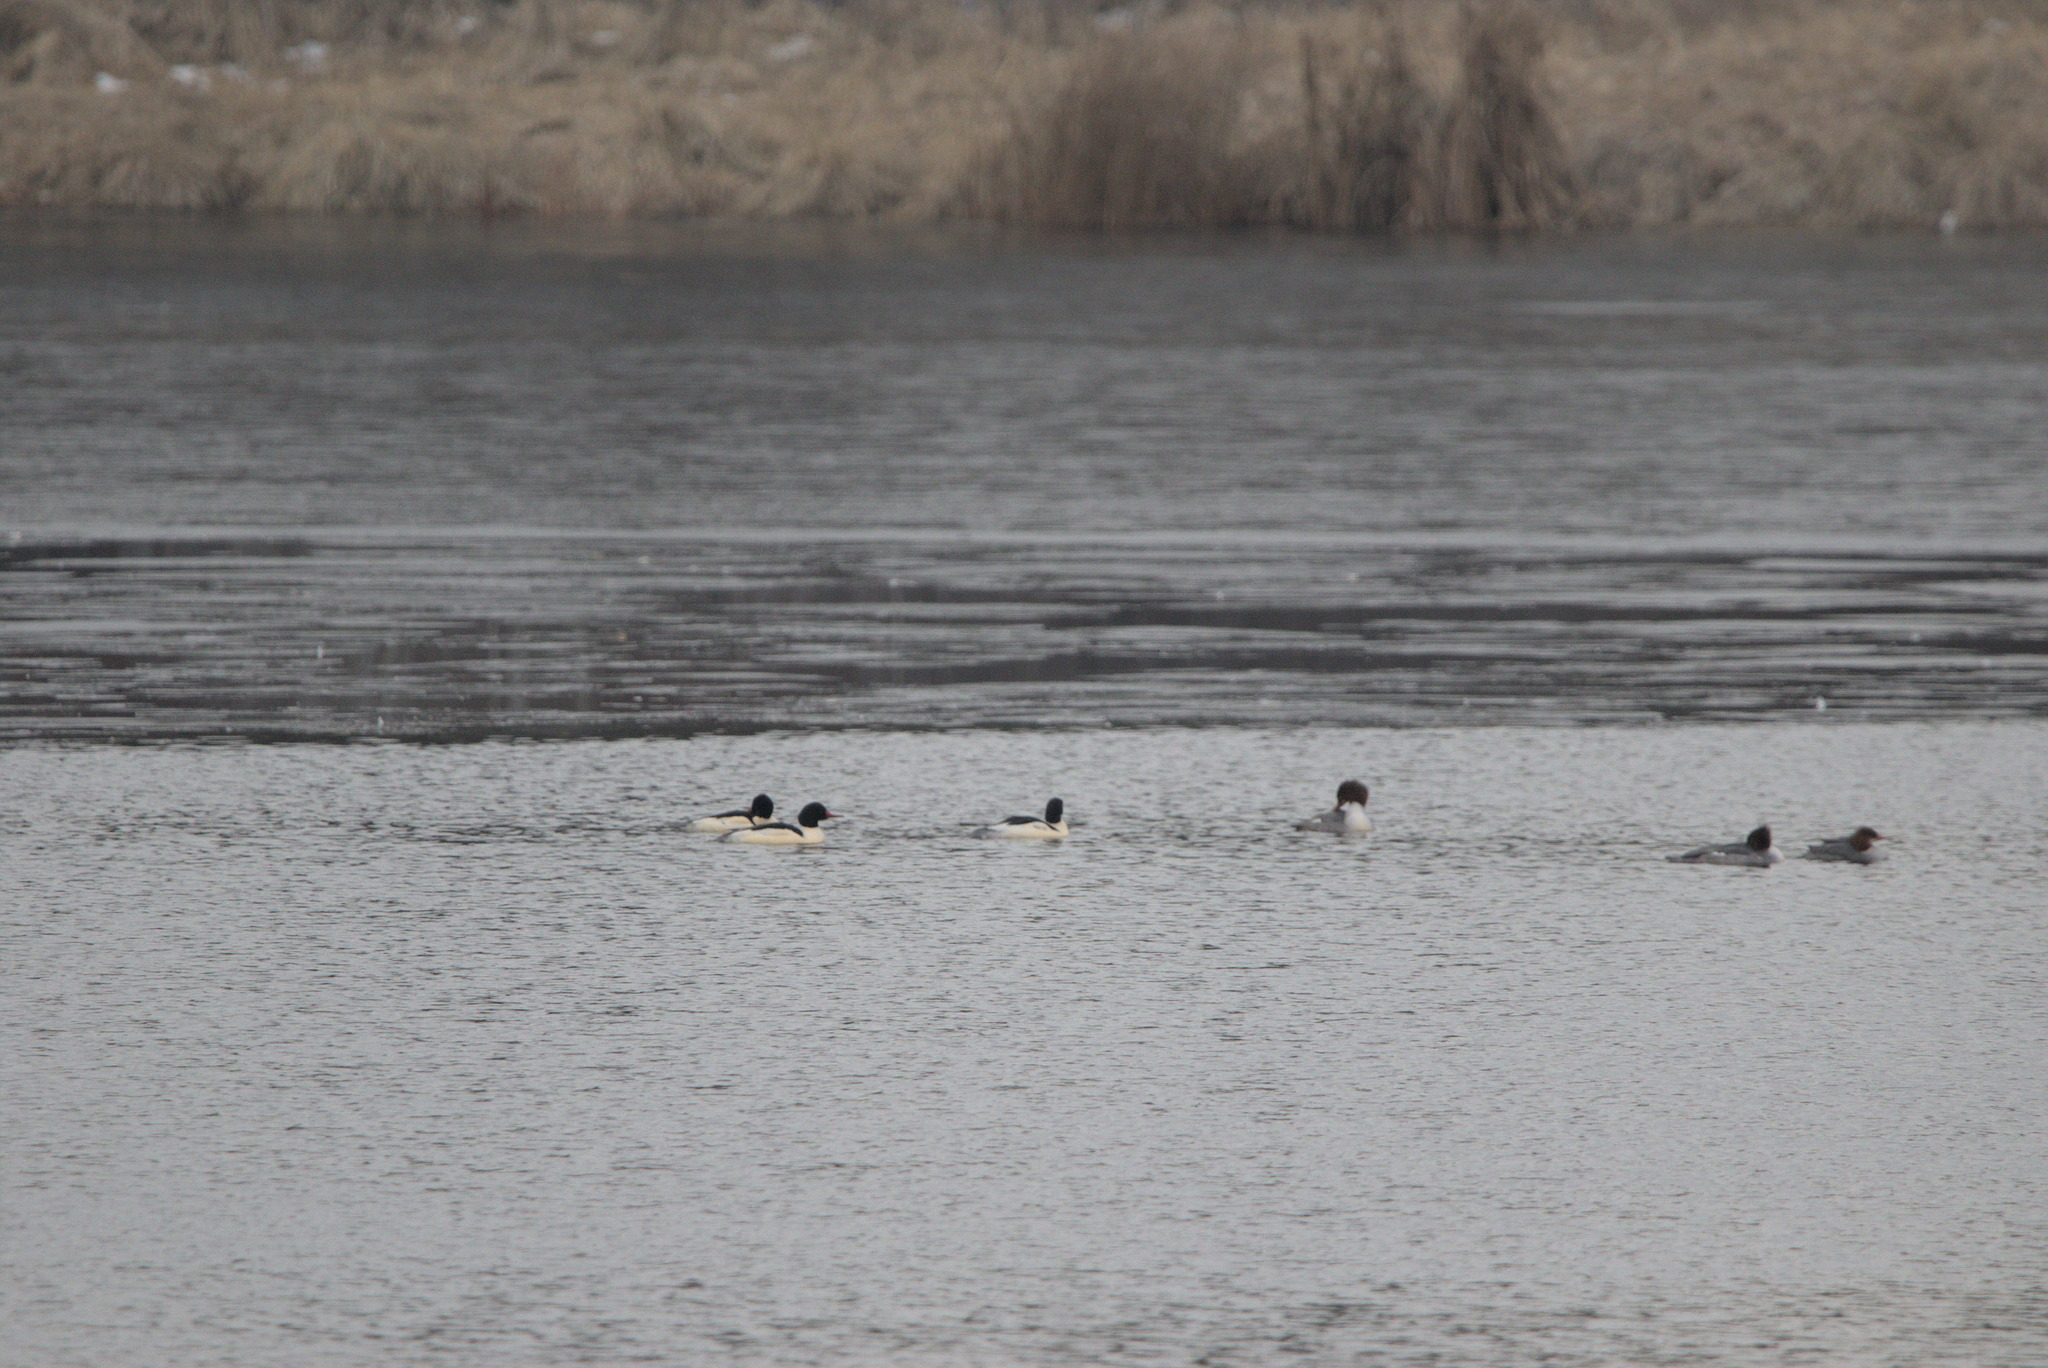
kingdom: Animalia
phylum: Chordata
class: Aves
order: Anseriformes
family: Anatidae
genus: Mergus
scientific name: Mergus merganser
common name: Common merganser
